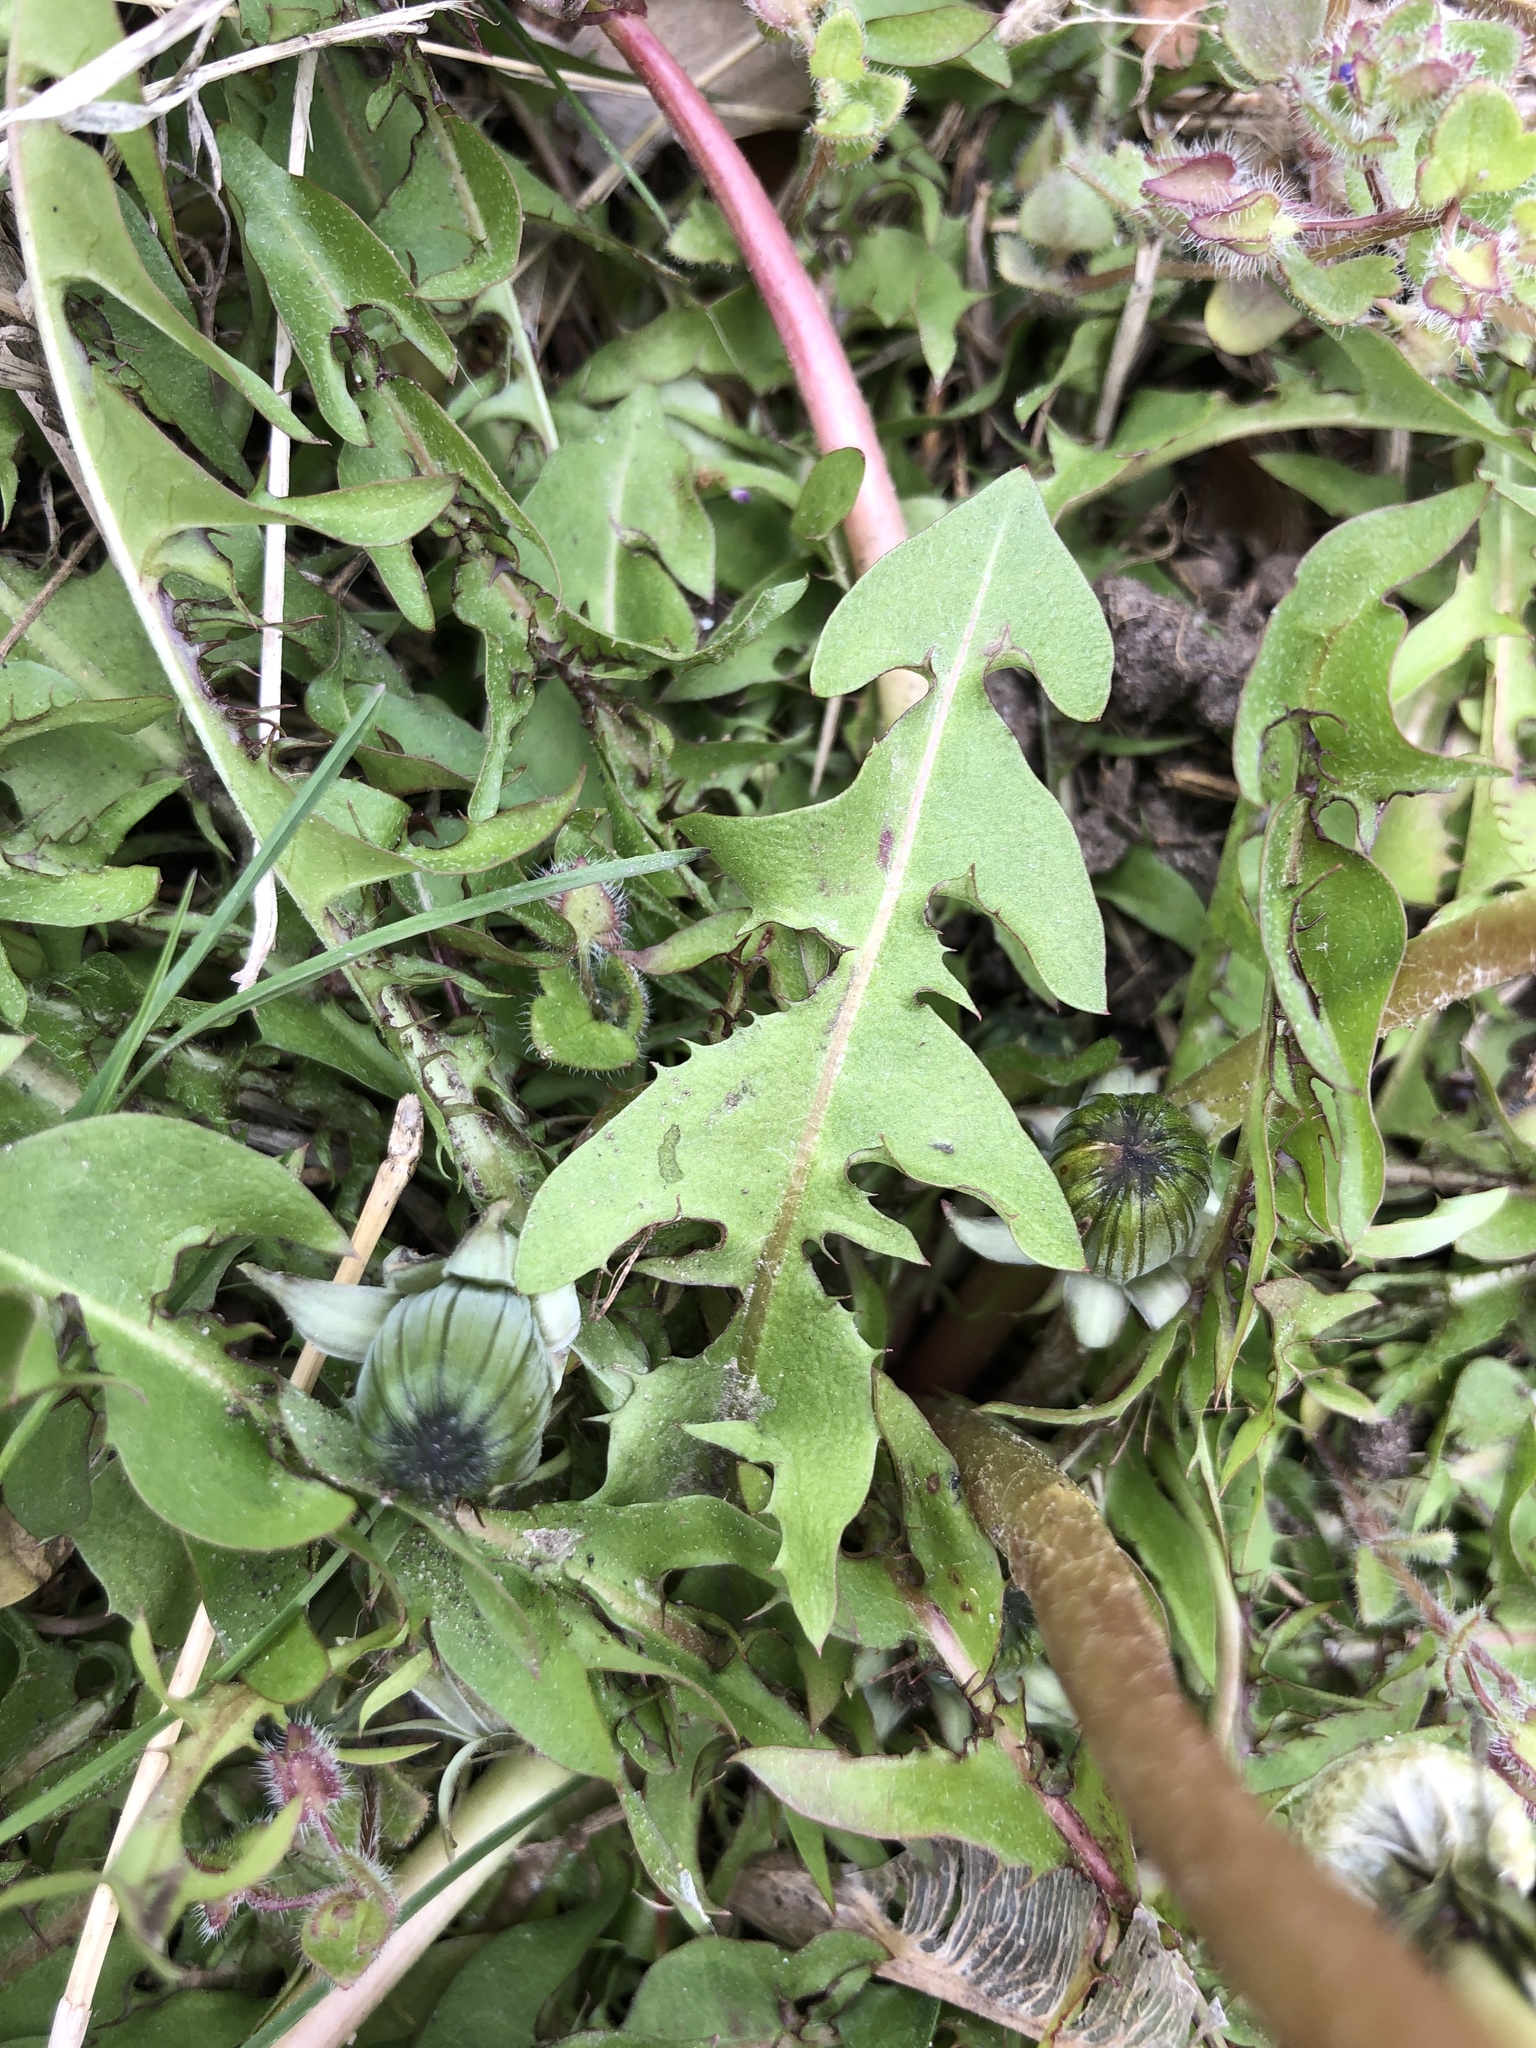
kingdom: Plantae
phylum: Tracheophyta
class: Magnoliopsida
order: Asterales
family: Asteraceae
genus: Taraxacum
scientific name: Taraxacum officinale
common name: Common dandelion
